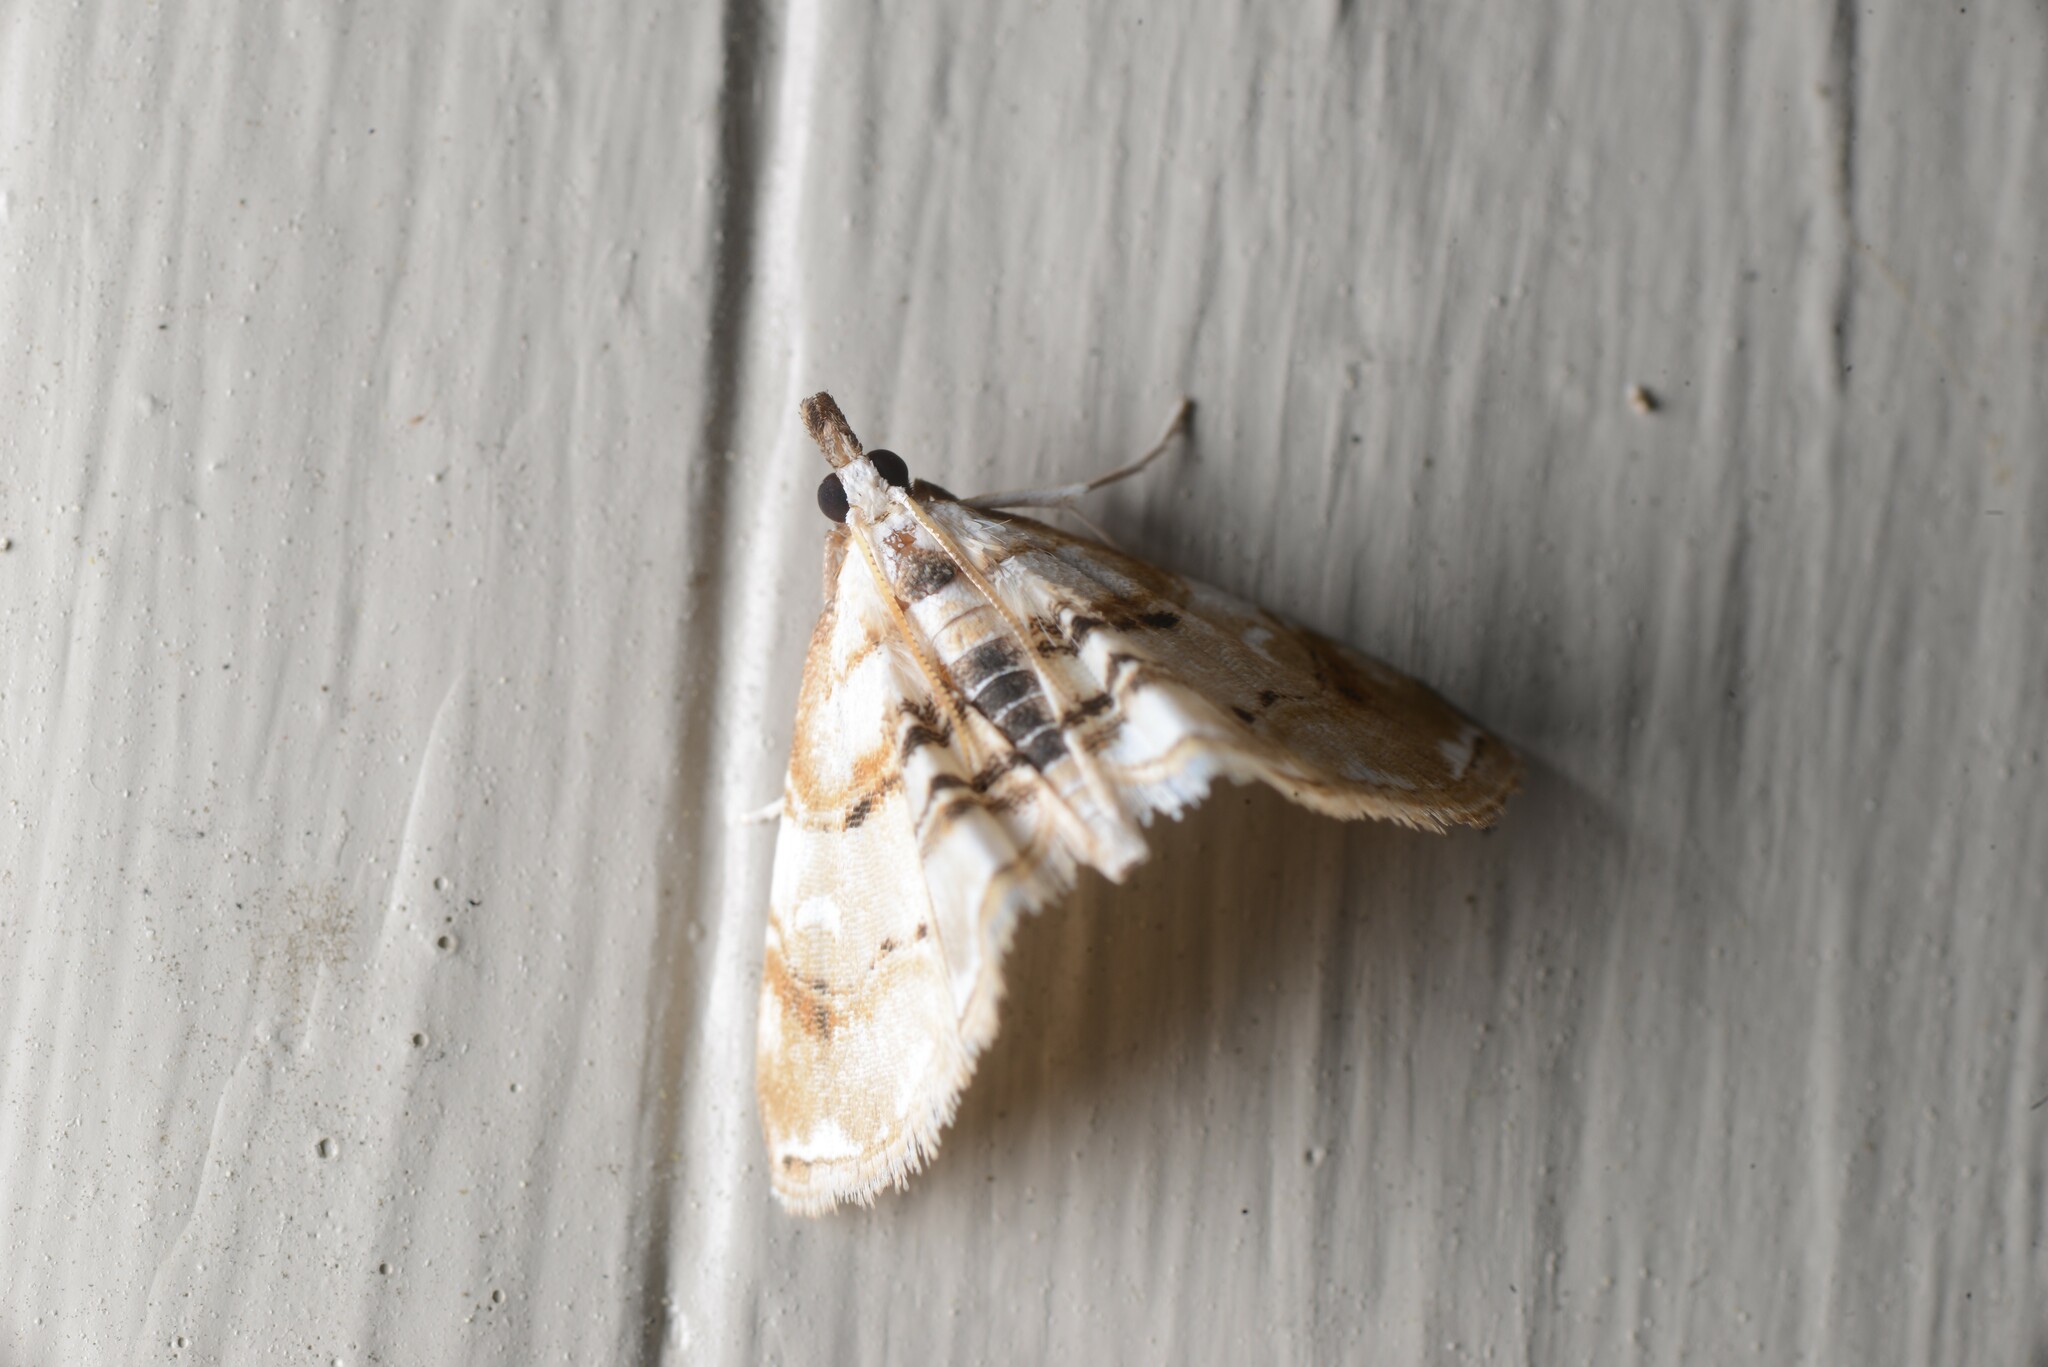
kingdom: Animalia
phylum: Arthropoda
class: Insecta
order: Lepidoptera
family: Crambidae
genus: Trichophysetis
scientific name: Trichophysetis
